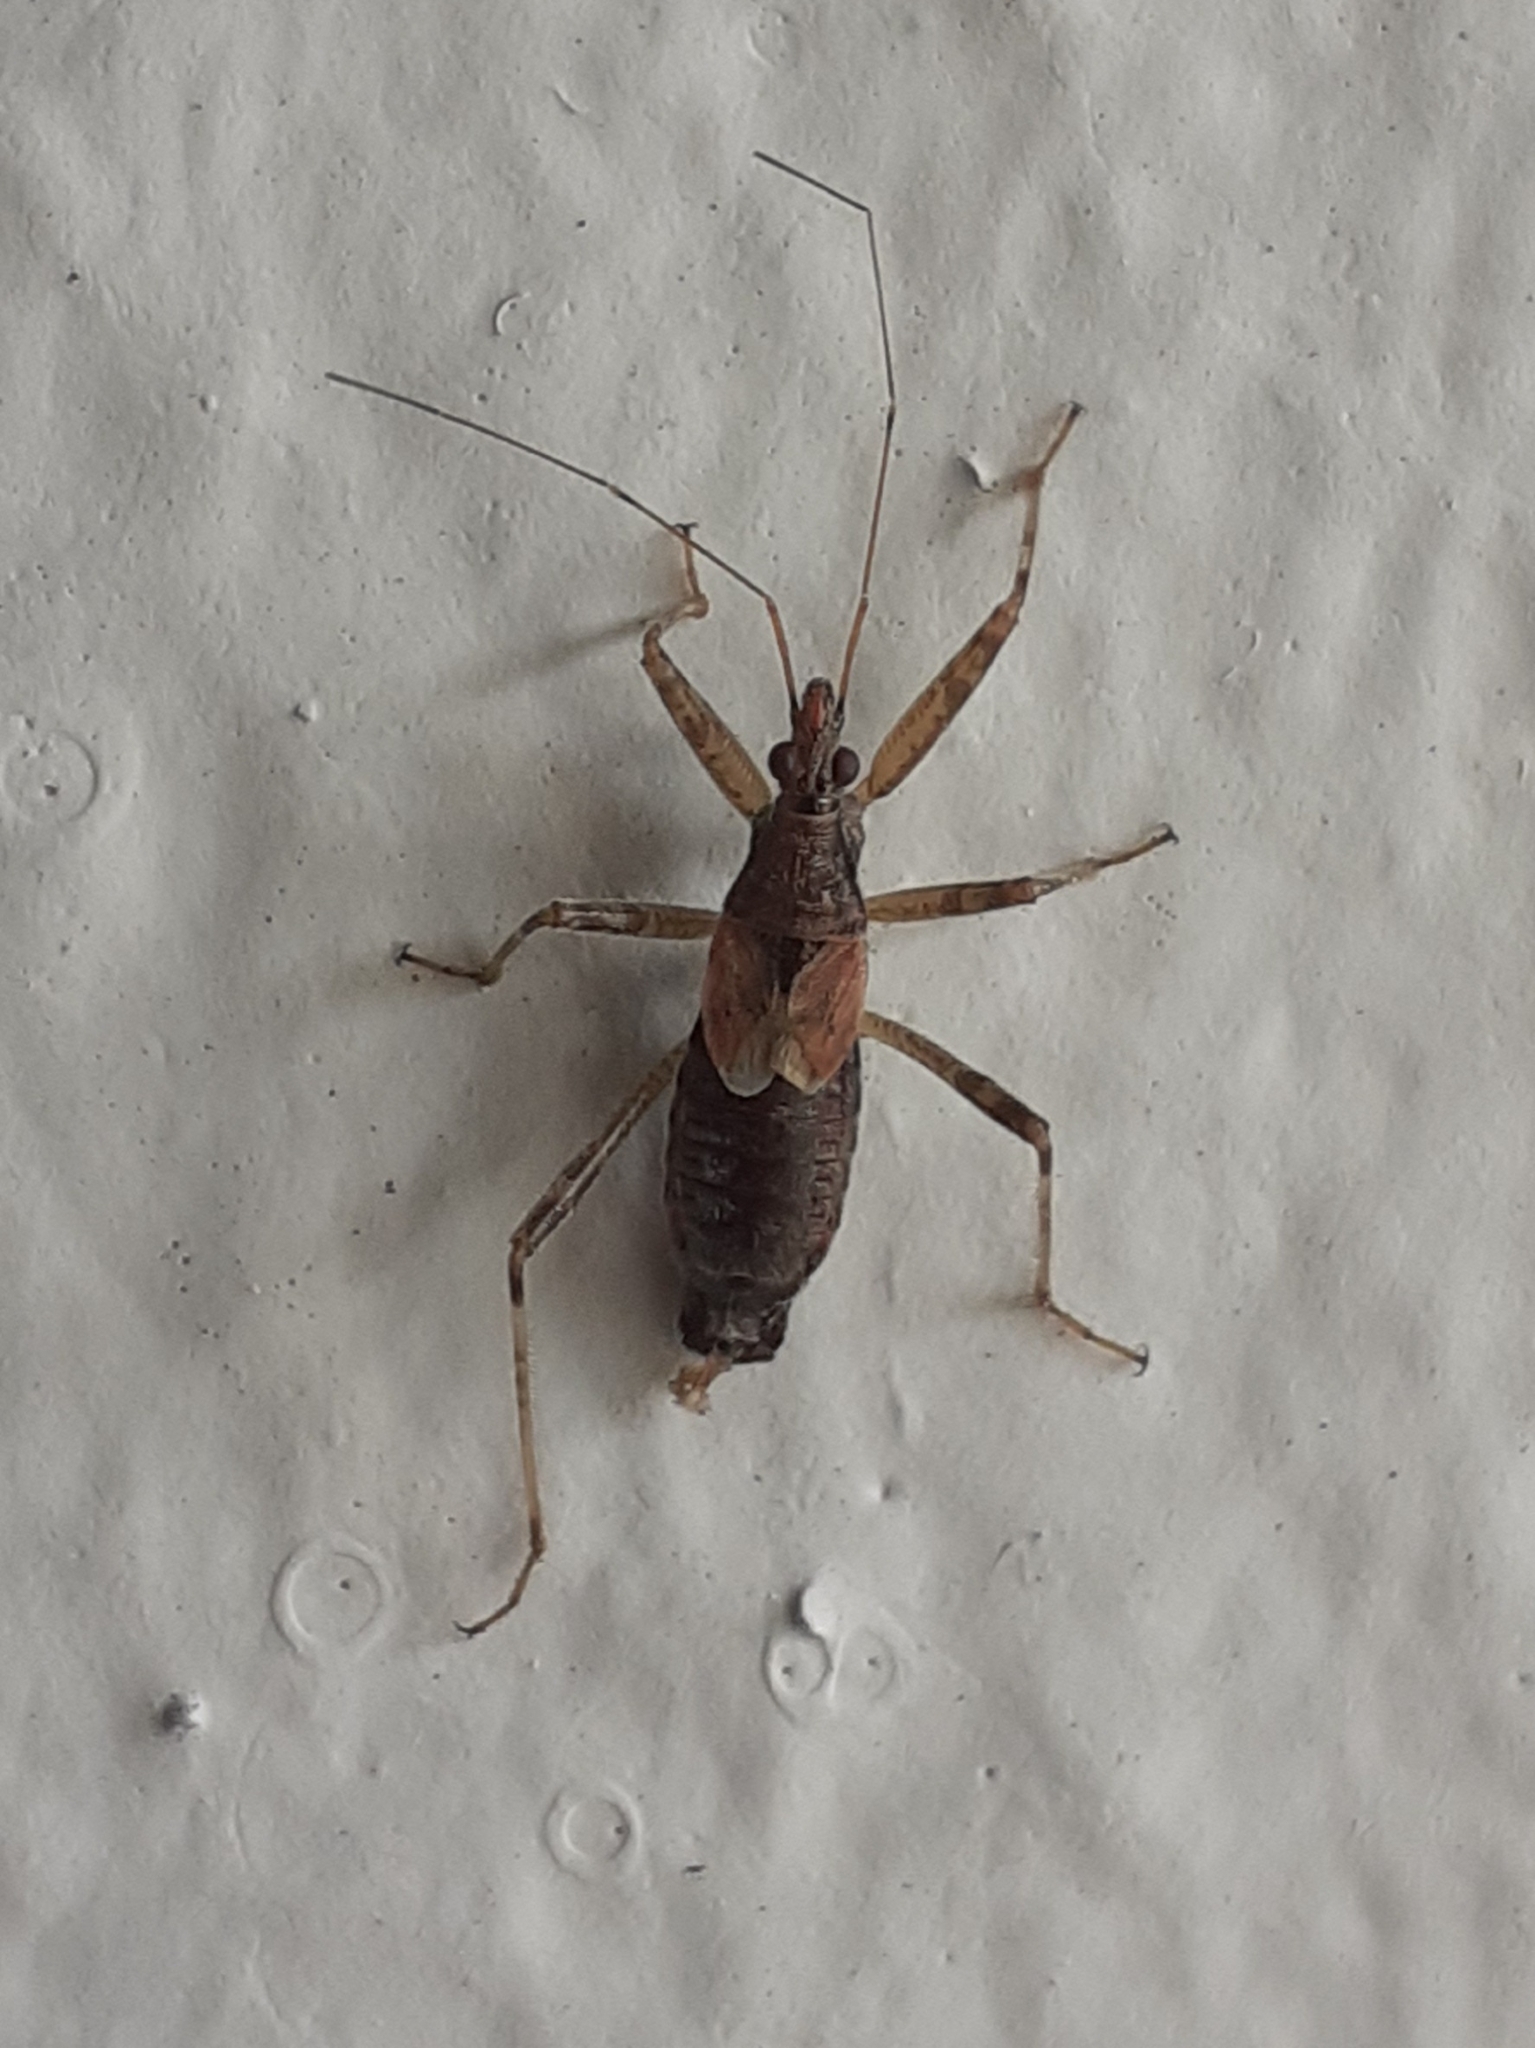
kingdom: Animalia
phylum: Arthropoda
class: Insecta
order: Hemiptera
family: Nabidae
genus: Himacerus
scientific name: Himacerus apterus
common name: Tree damsel bug
